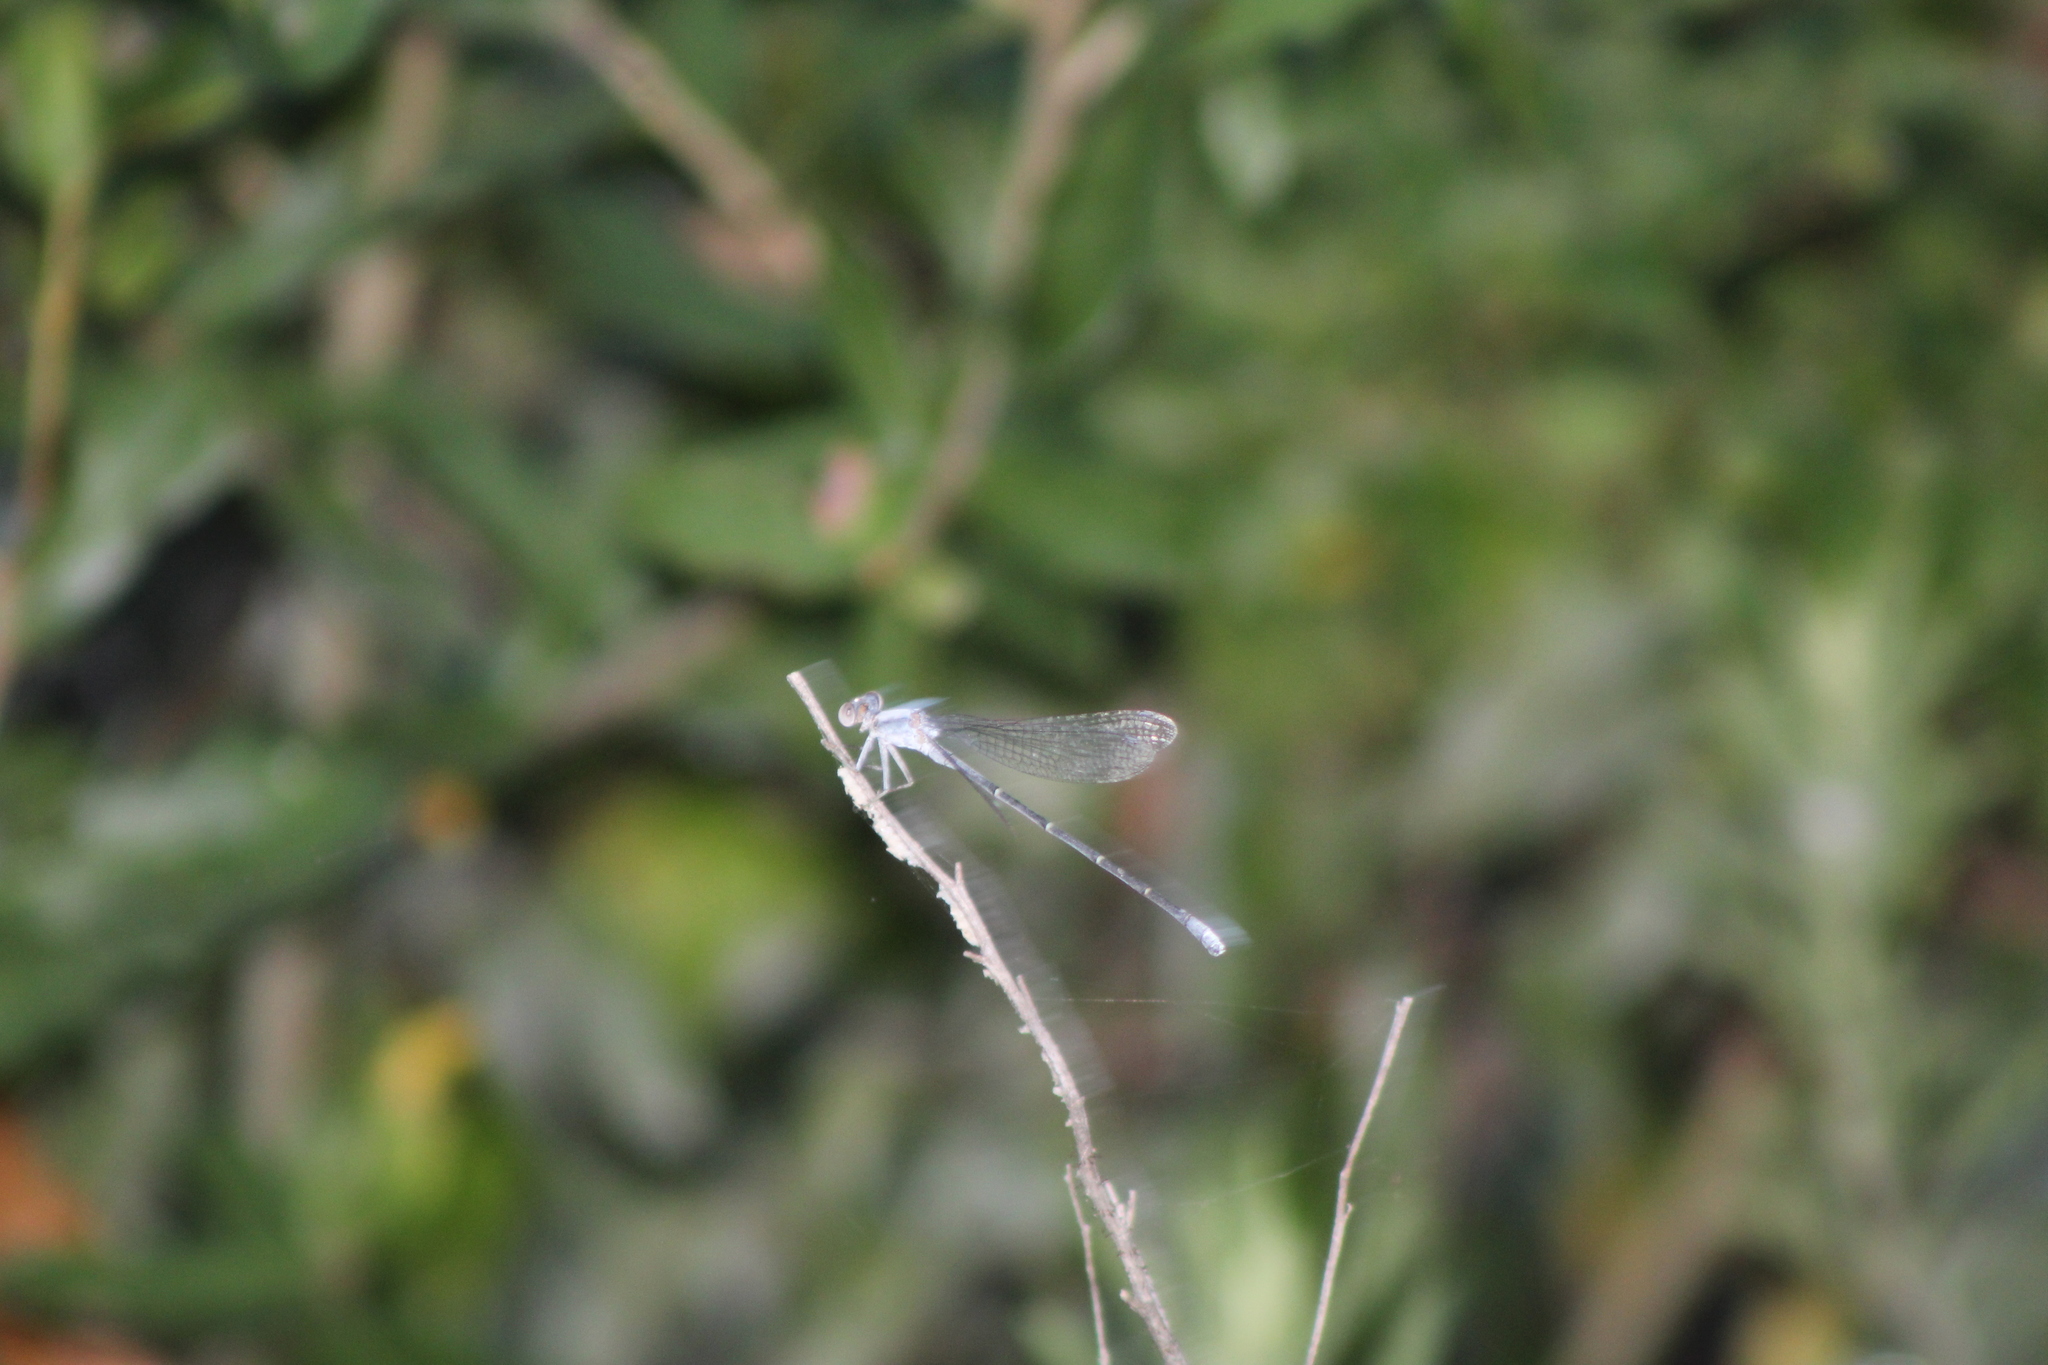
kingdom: Animalia
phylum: Arthropoda
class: Insecta
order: Odonata
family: Coenagrionidae
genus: Argia
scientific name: Argia moesta
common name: Powdered dancer
